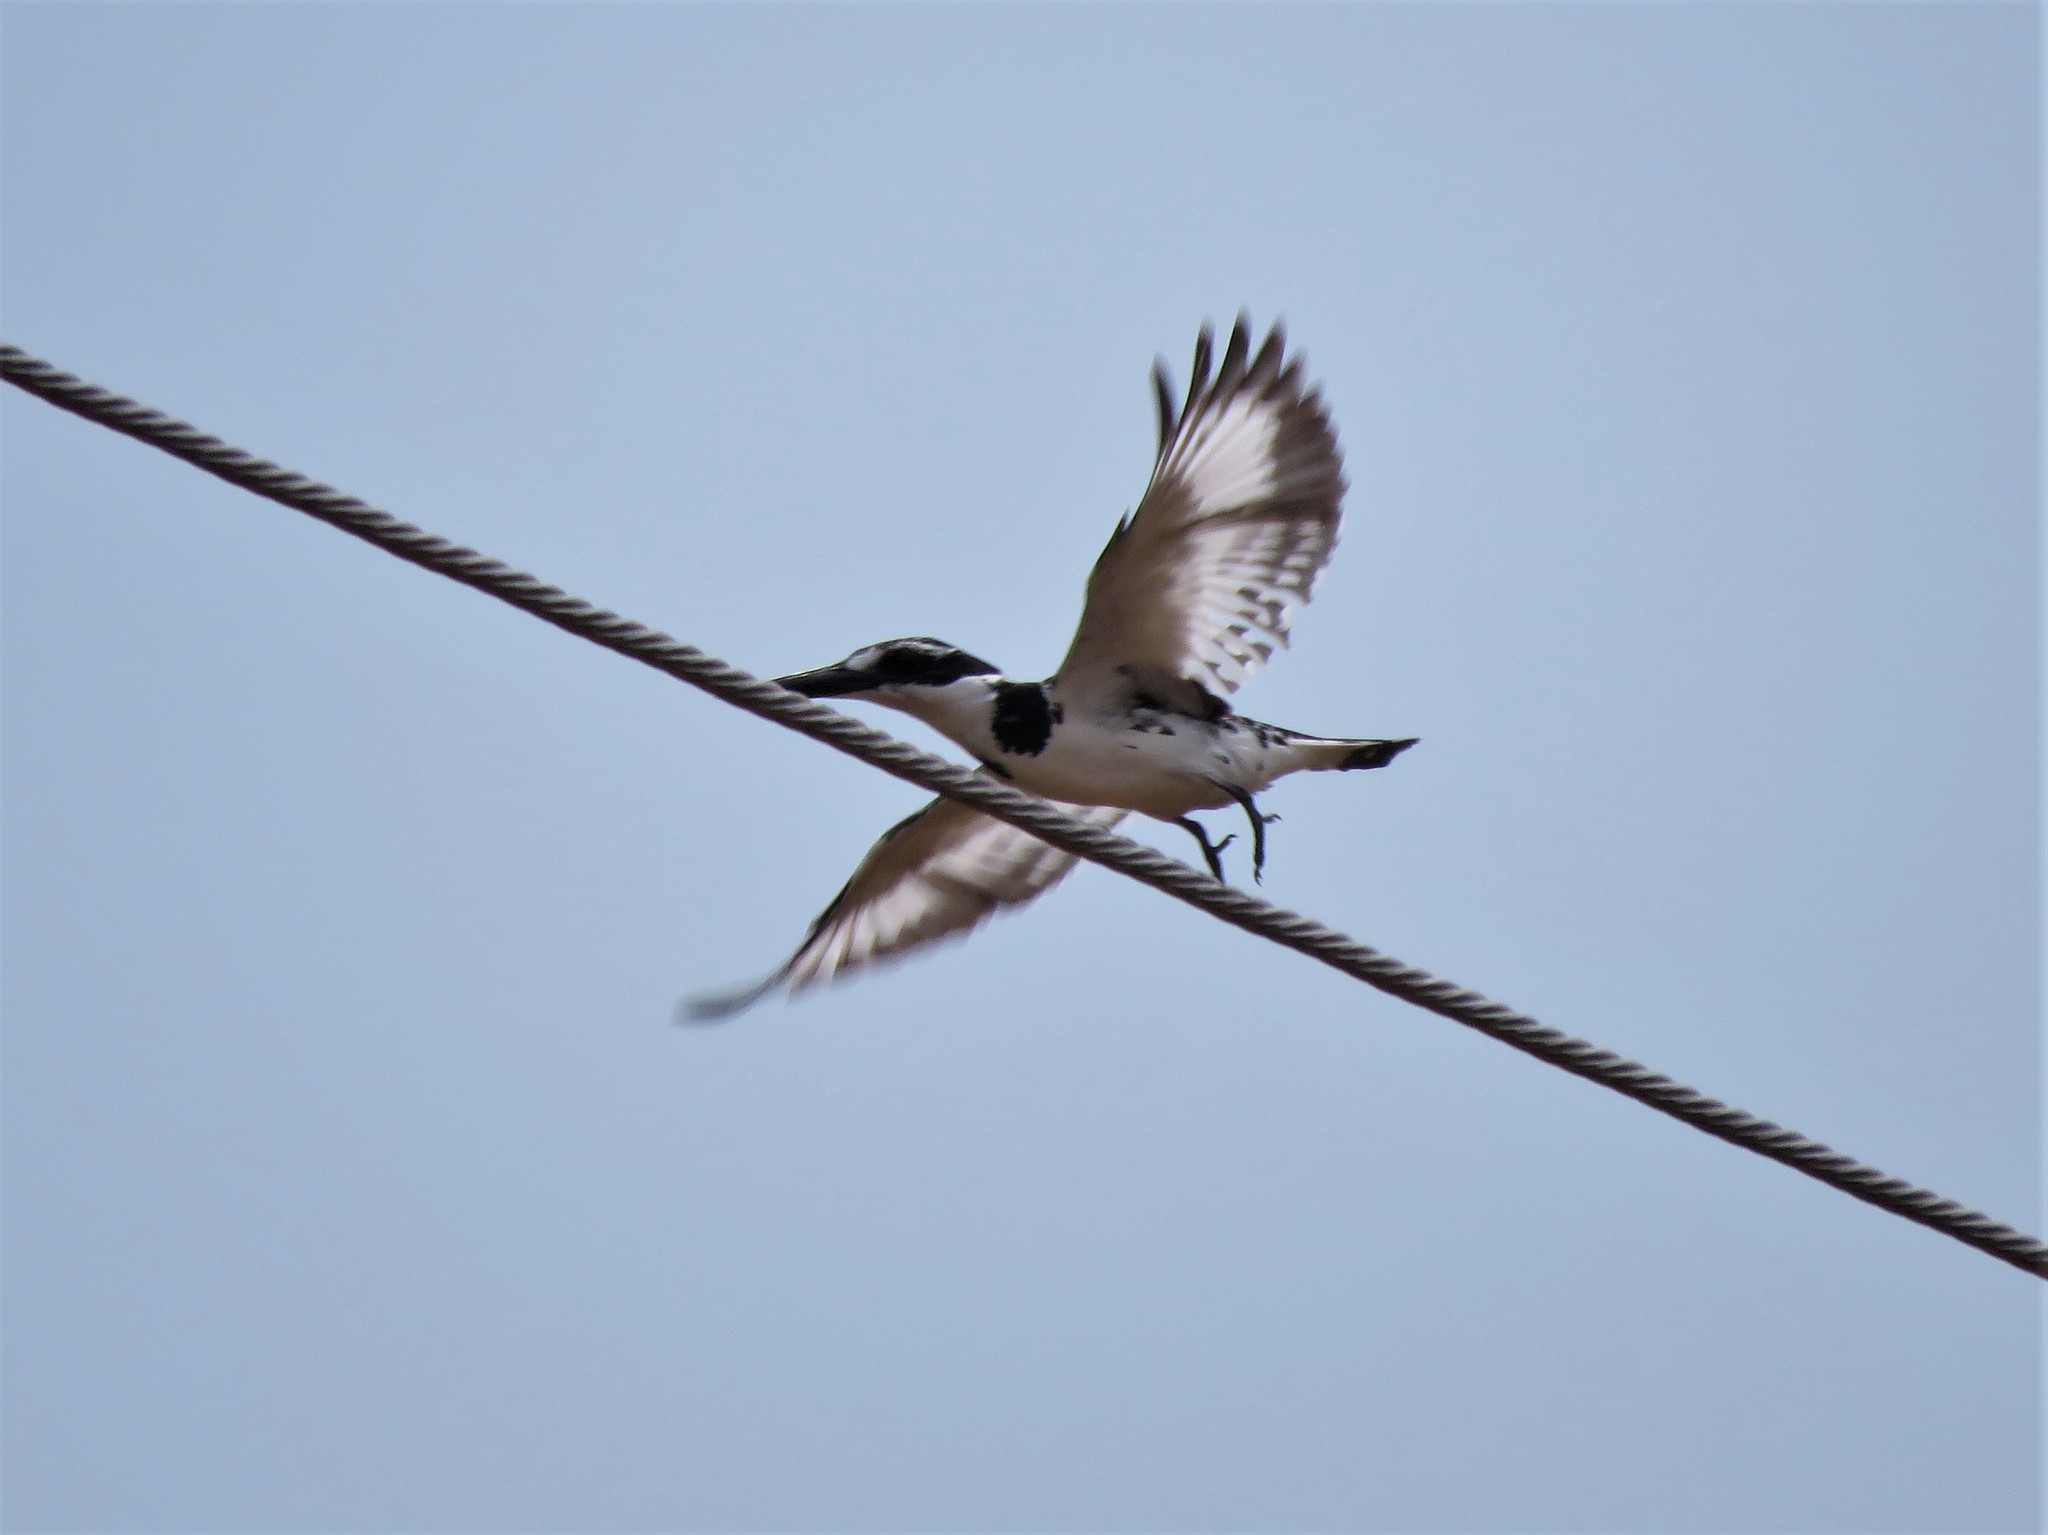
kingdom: Animalia
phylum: Chordata
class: Aves
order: Coraciiformes
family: Alcedinidae
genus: Ceryle
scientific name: Ceryle rudis
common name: Pied kingfisher
